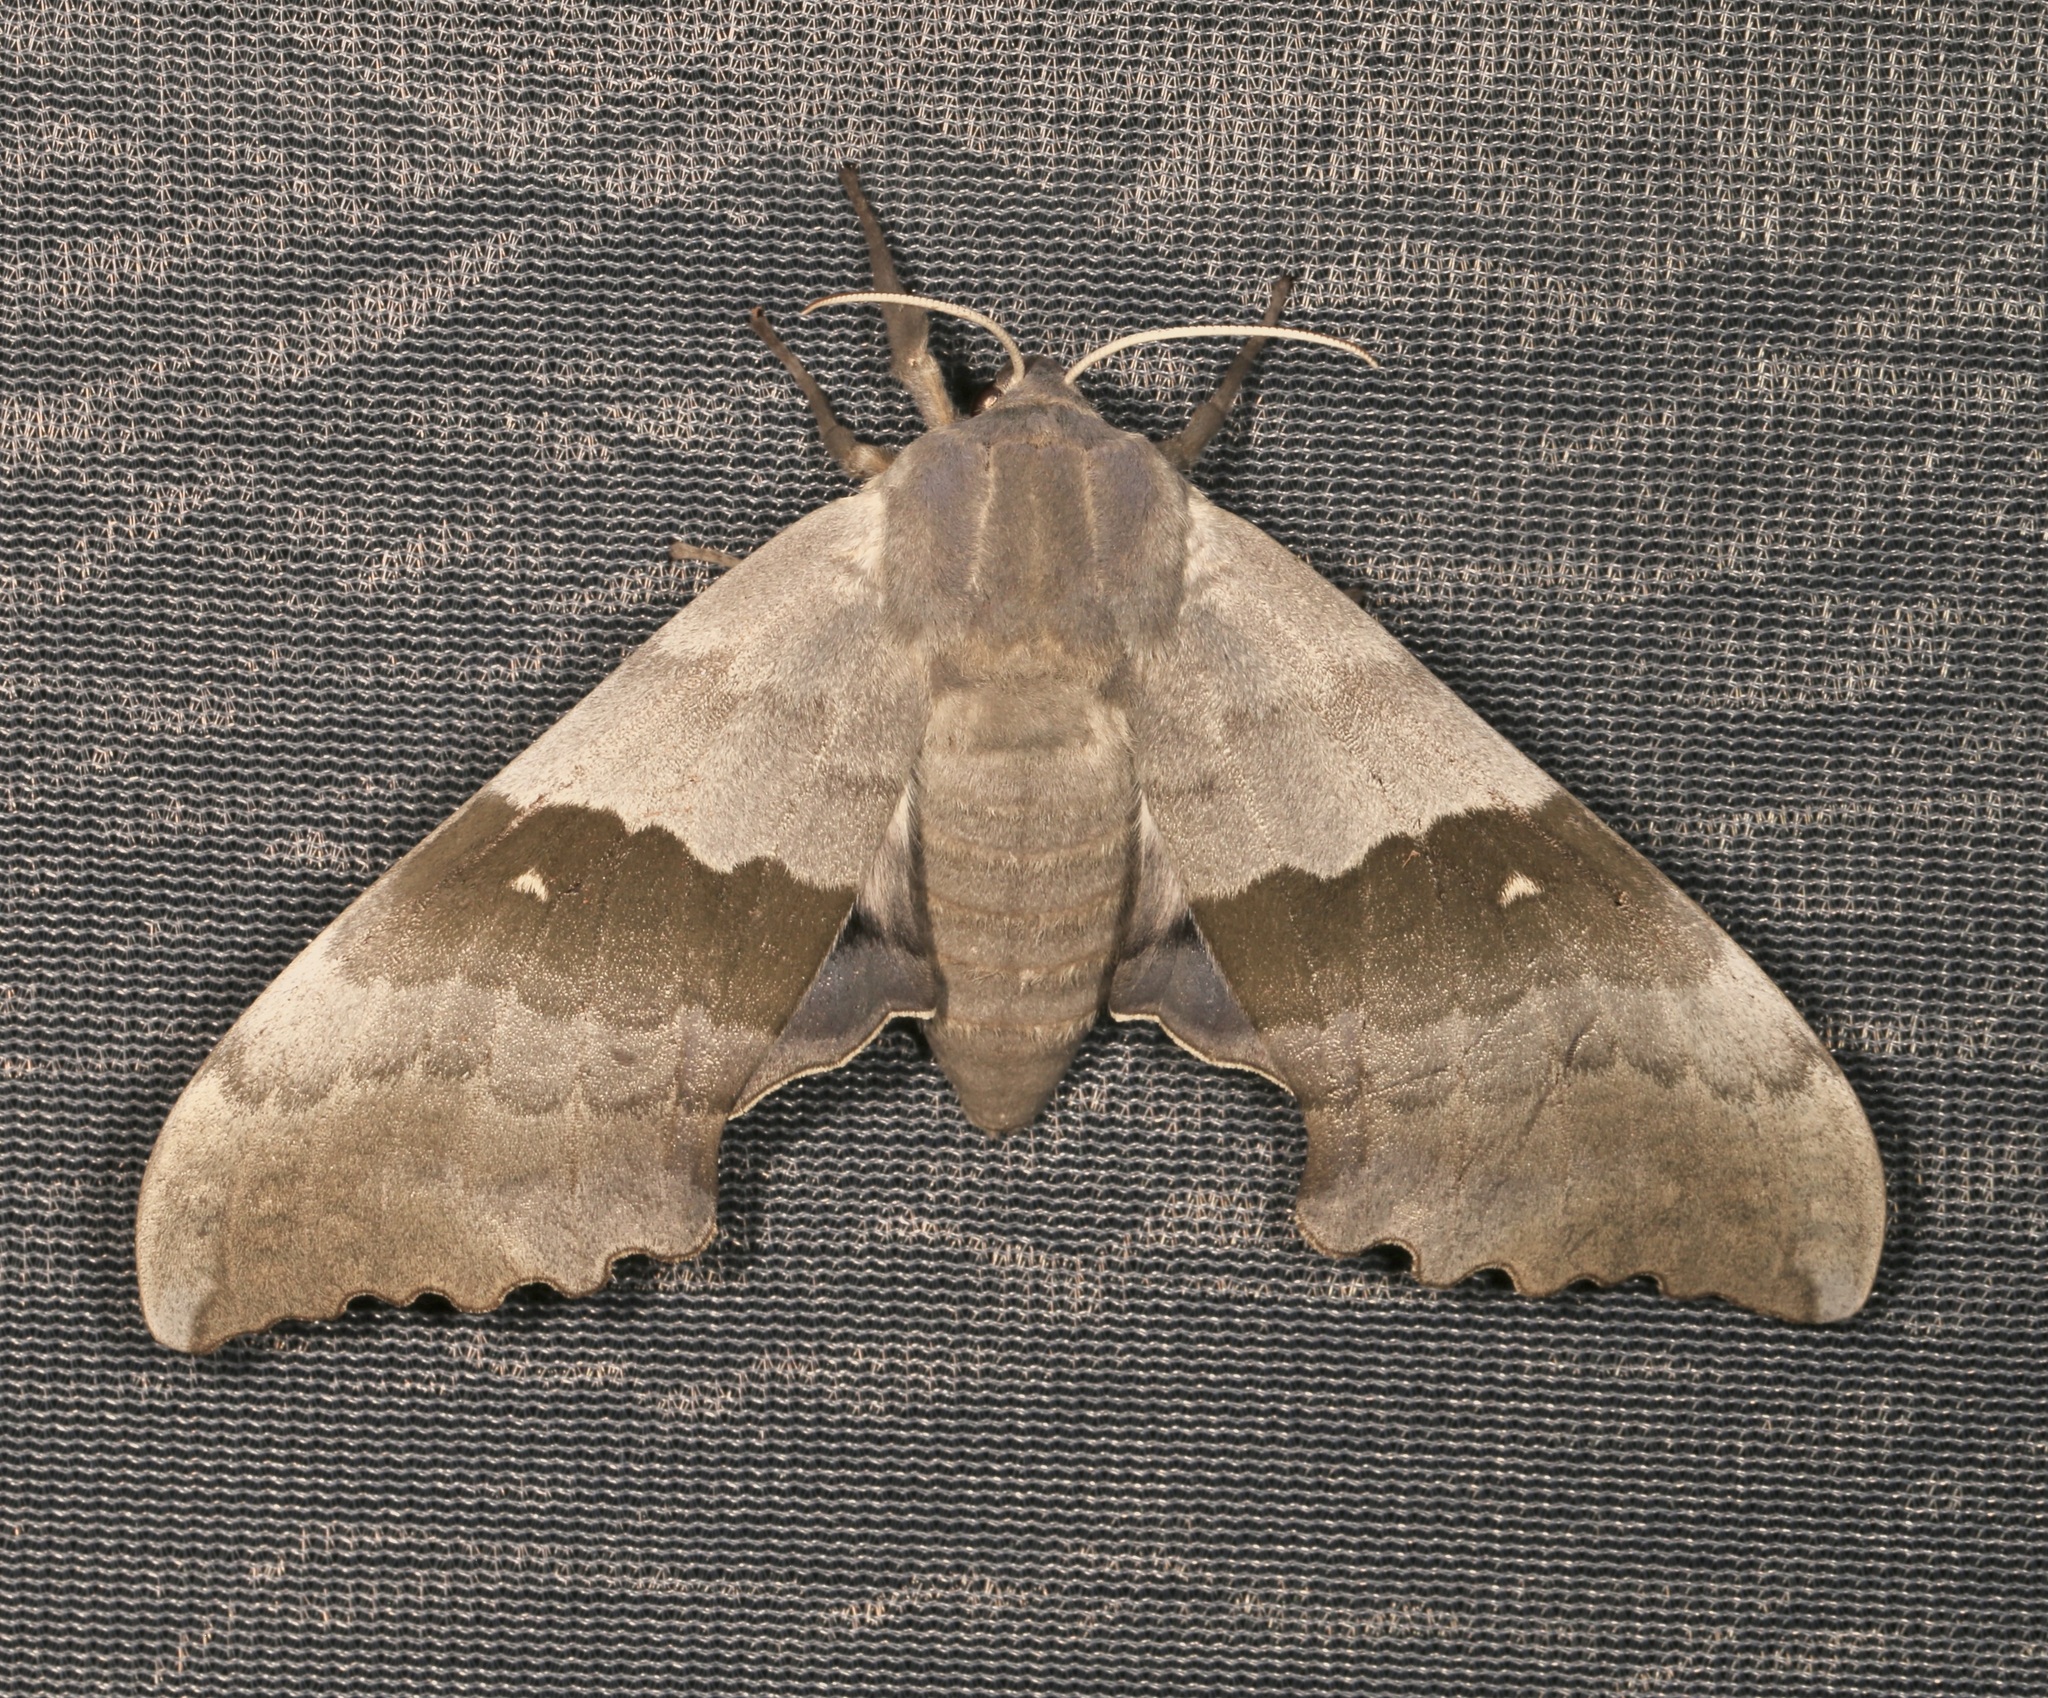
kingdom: Animalia
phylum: Arthropoda
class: Insecta
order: Lepidoptera
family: Sphingidae
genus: Pachysphinx
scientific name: Pachysphinx occidentalis
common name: Western poplar sphinx
